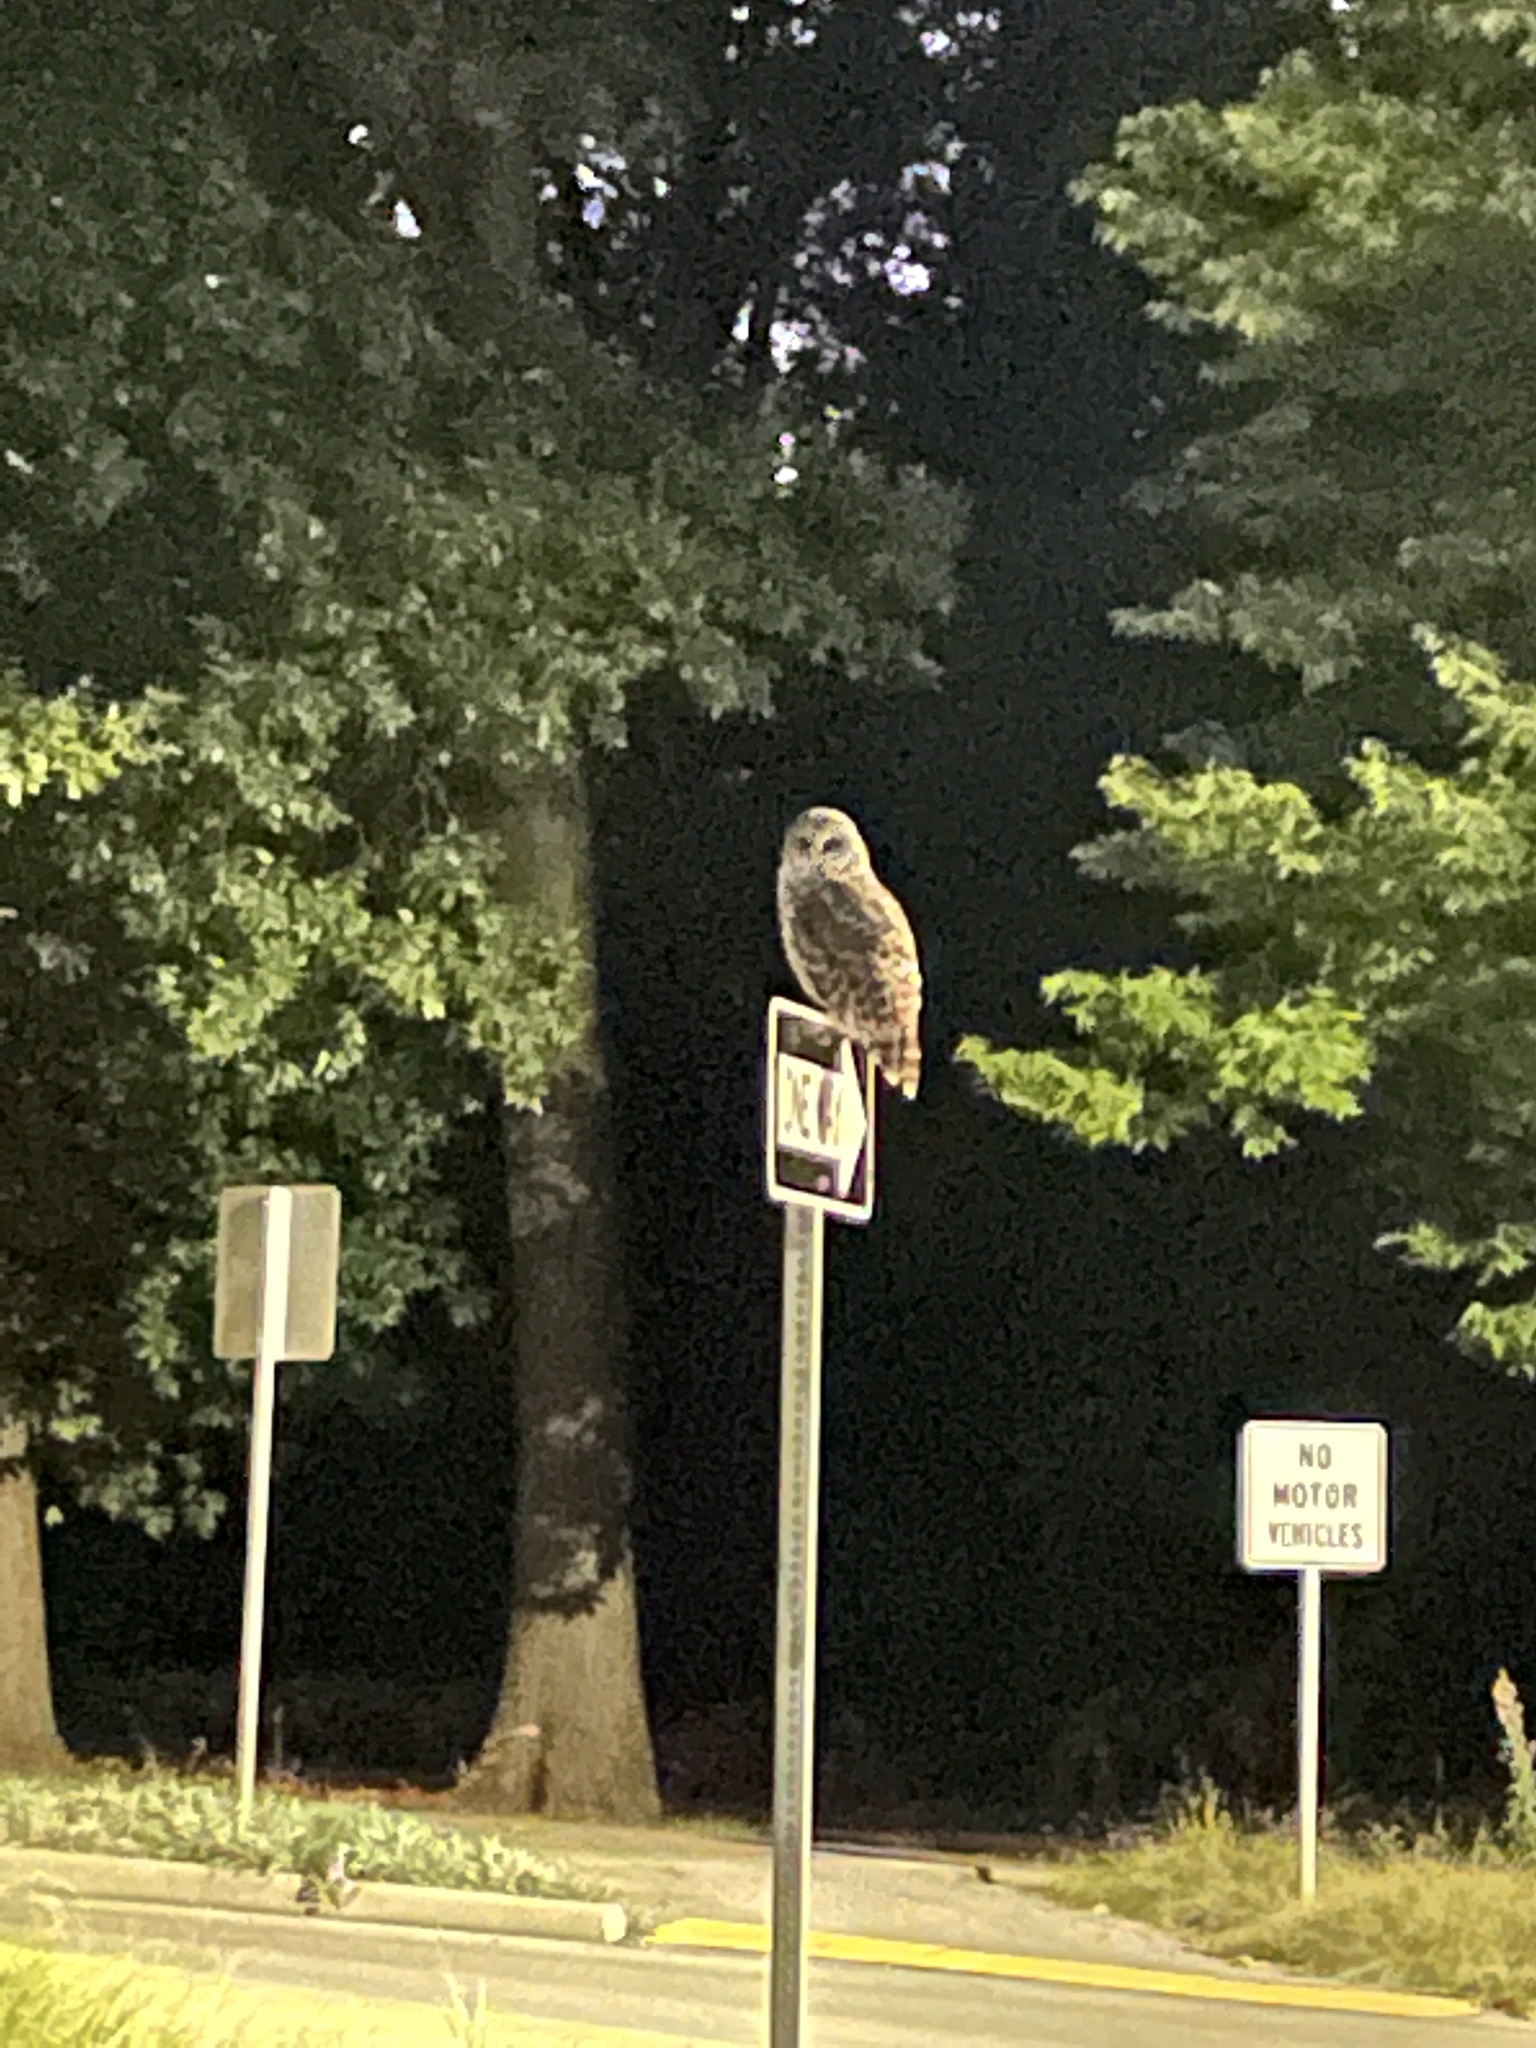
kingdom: Animalia
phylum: Chordata
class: Aves
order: Strigiformes
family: Strigidae
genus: Strix
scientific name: Strix varia
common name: Barred owl
